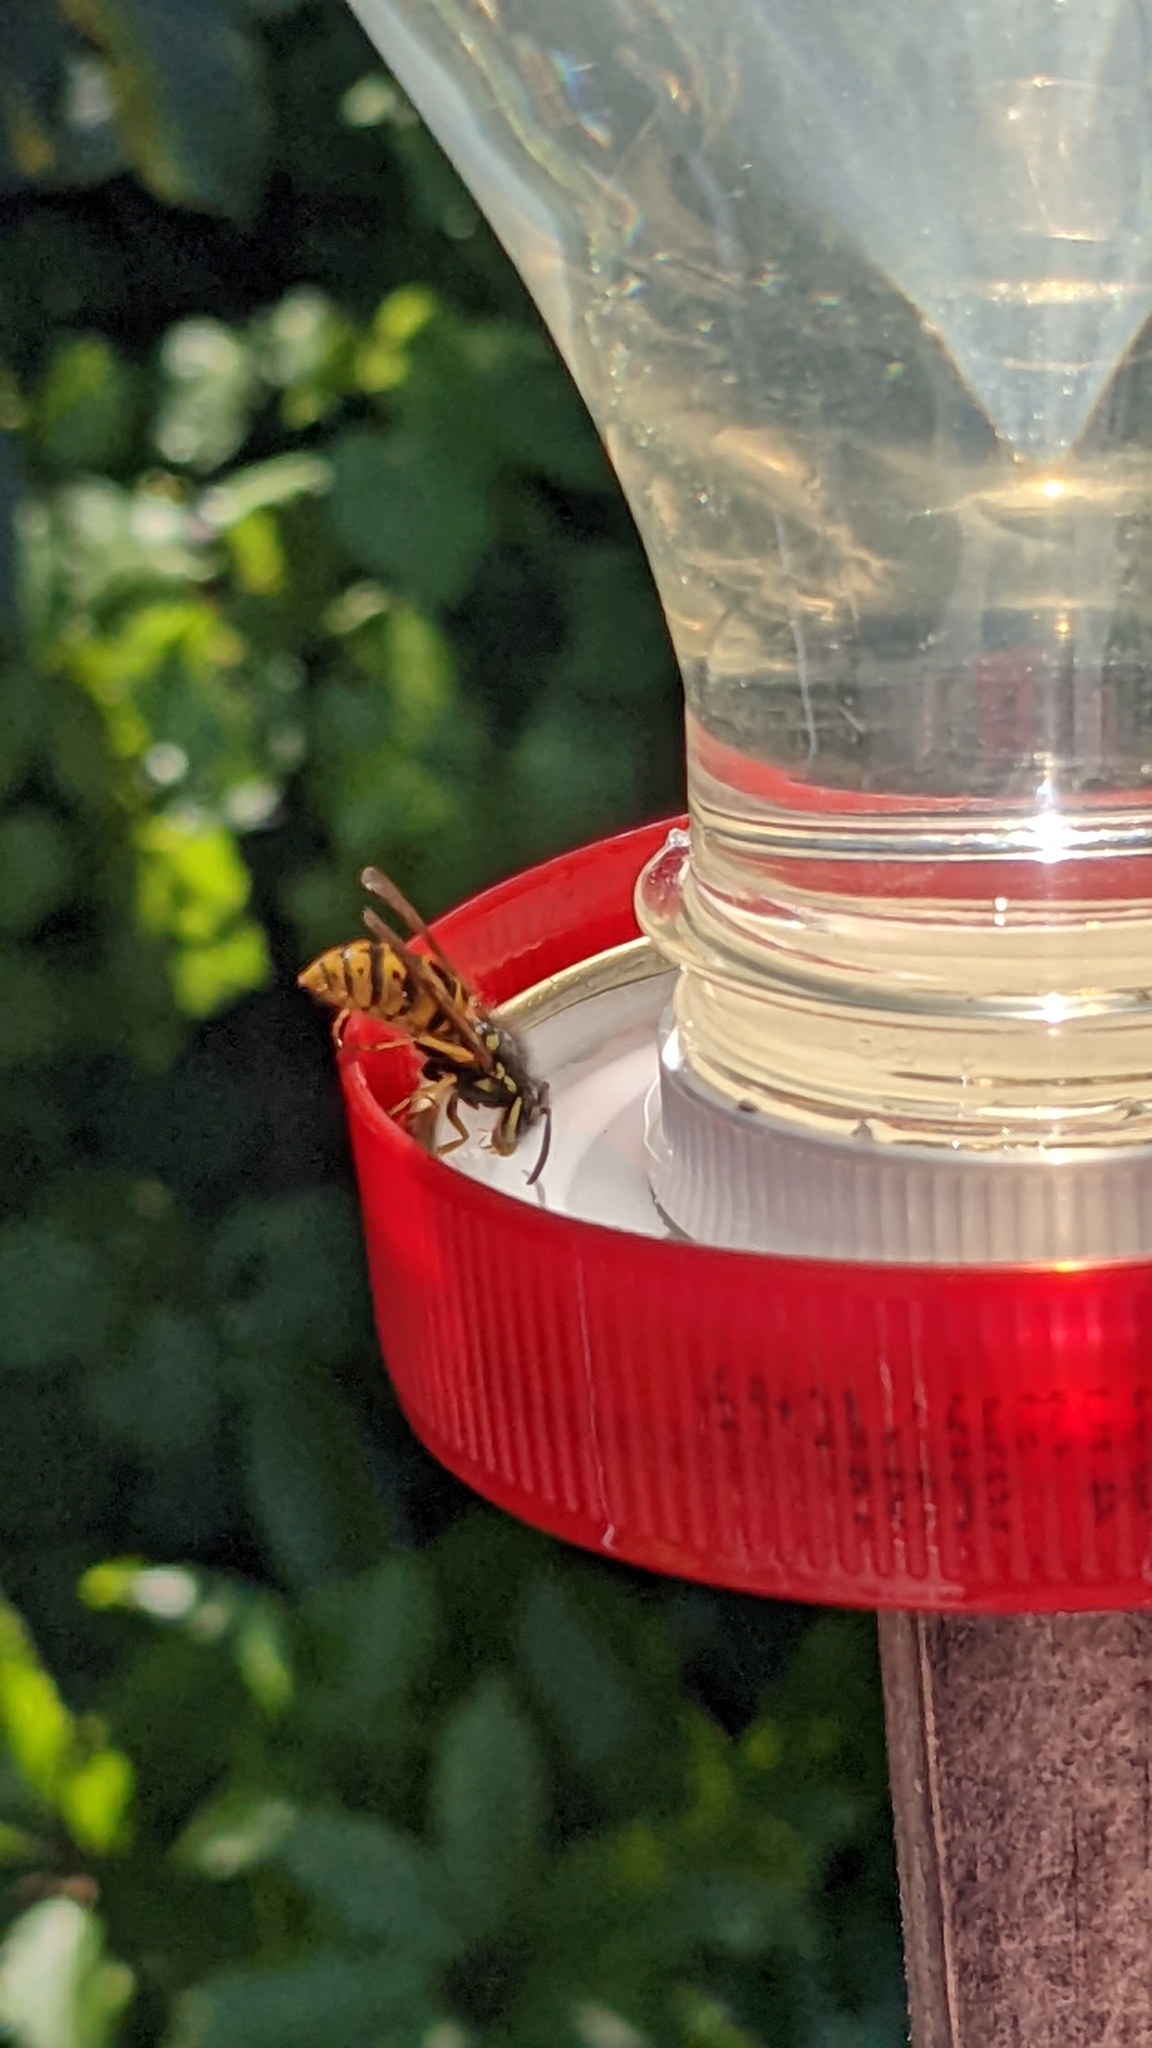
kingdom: Animalia
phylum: Arthropoda
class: Insecta
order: Hymenoptera
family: Vespidae
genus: Vespula
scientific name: Vespula germanica
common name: German wasp
